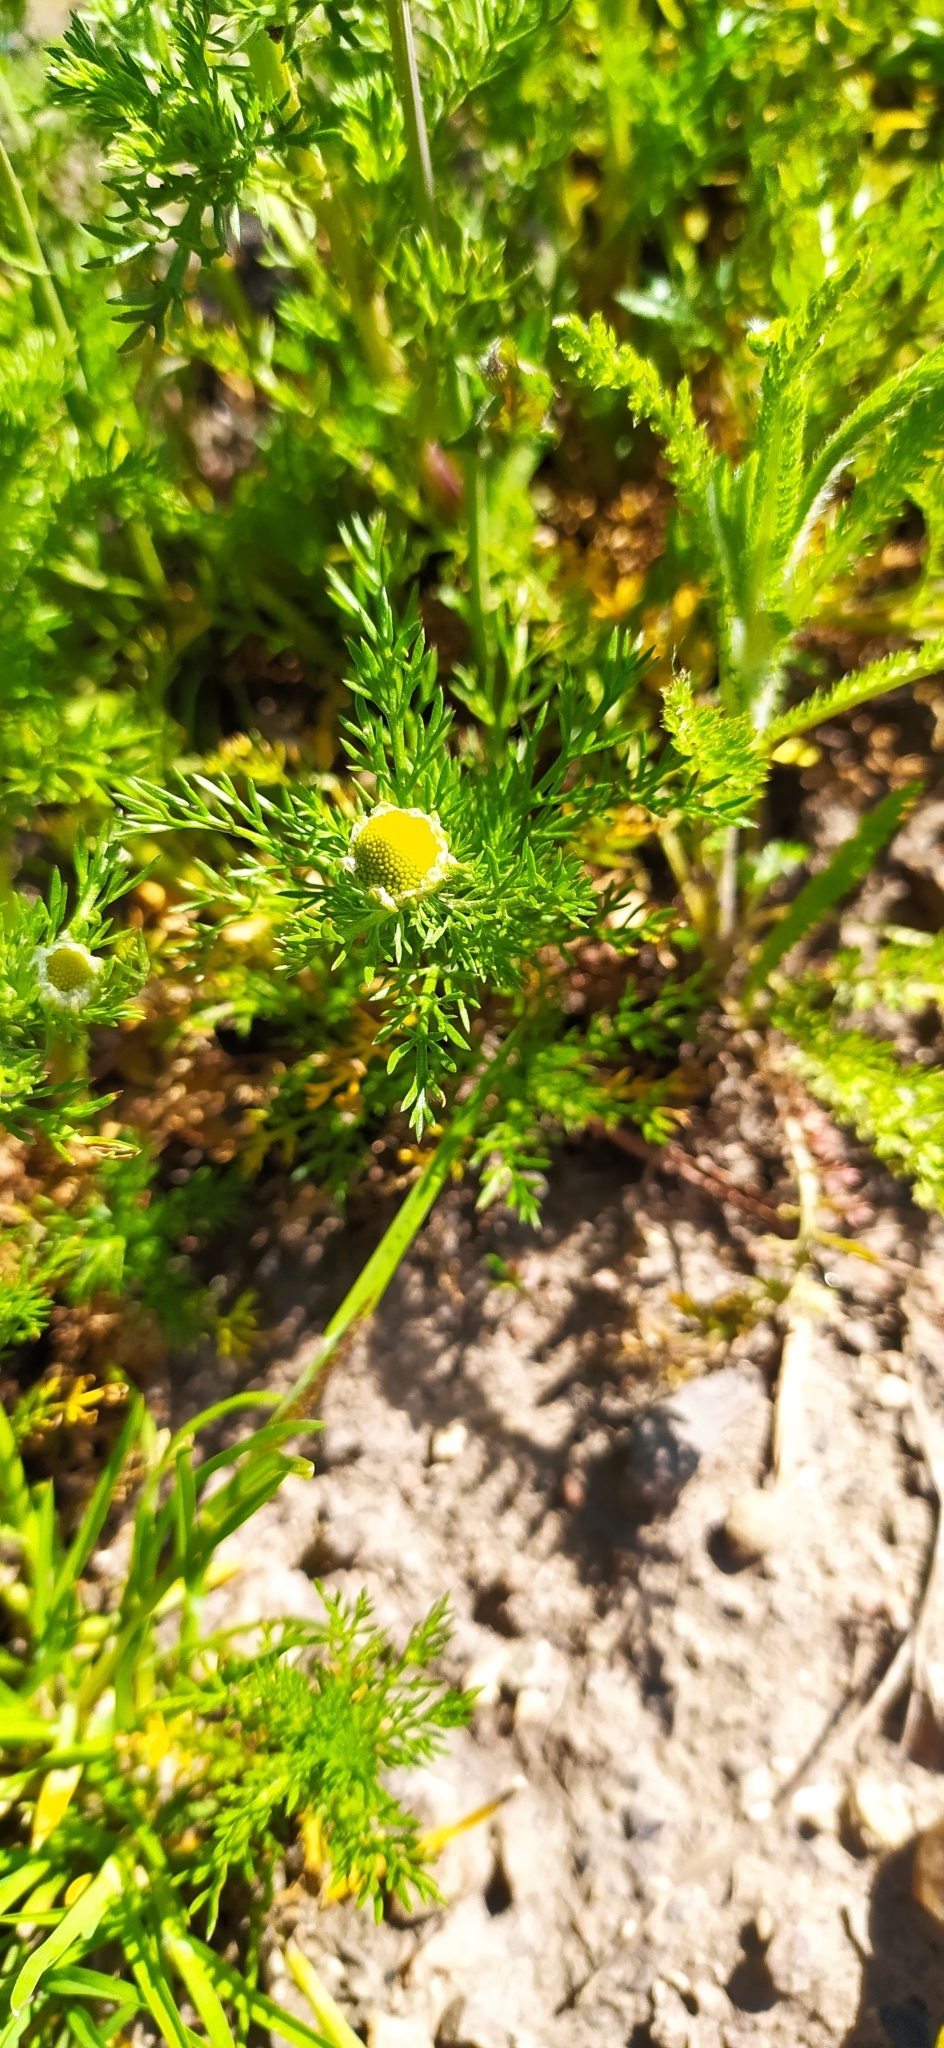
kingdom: Plantae
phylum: Tracheophyta
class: Magnoliopsida
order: Asterales
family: Asteraceae
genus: Matricaria
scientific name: Matricaria discoidea
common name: Disc mayweed
